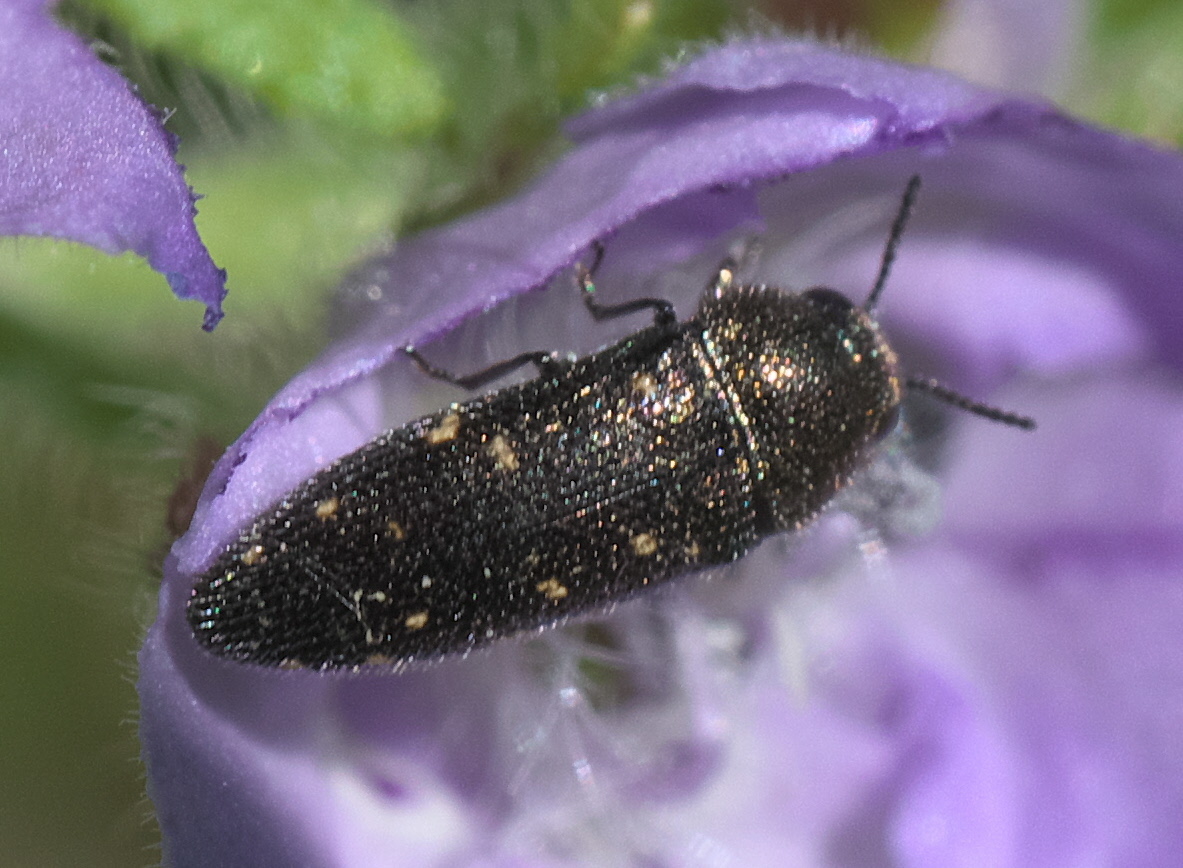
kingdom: Animalia
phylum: Arthropoda
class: Insecta
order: Coleoptera
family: Buprestidae
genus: Acmaeodera
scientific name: Acmaeodera tubulus
